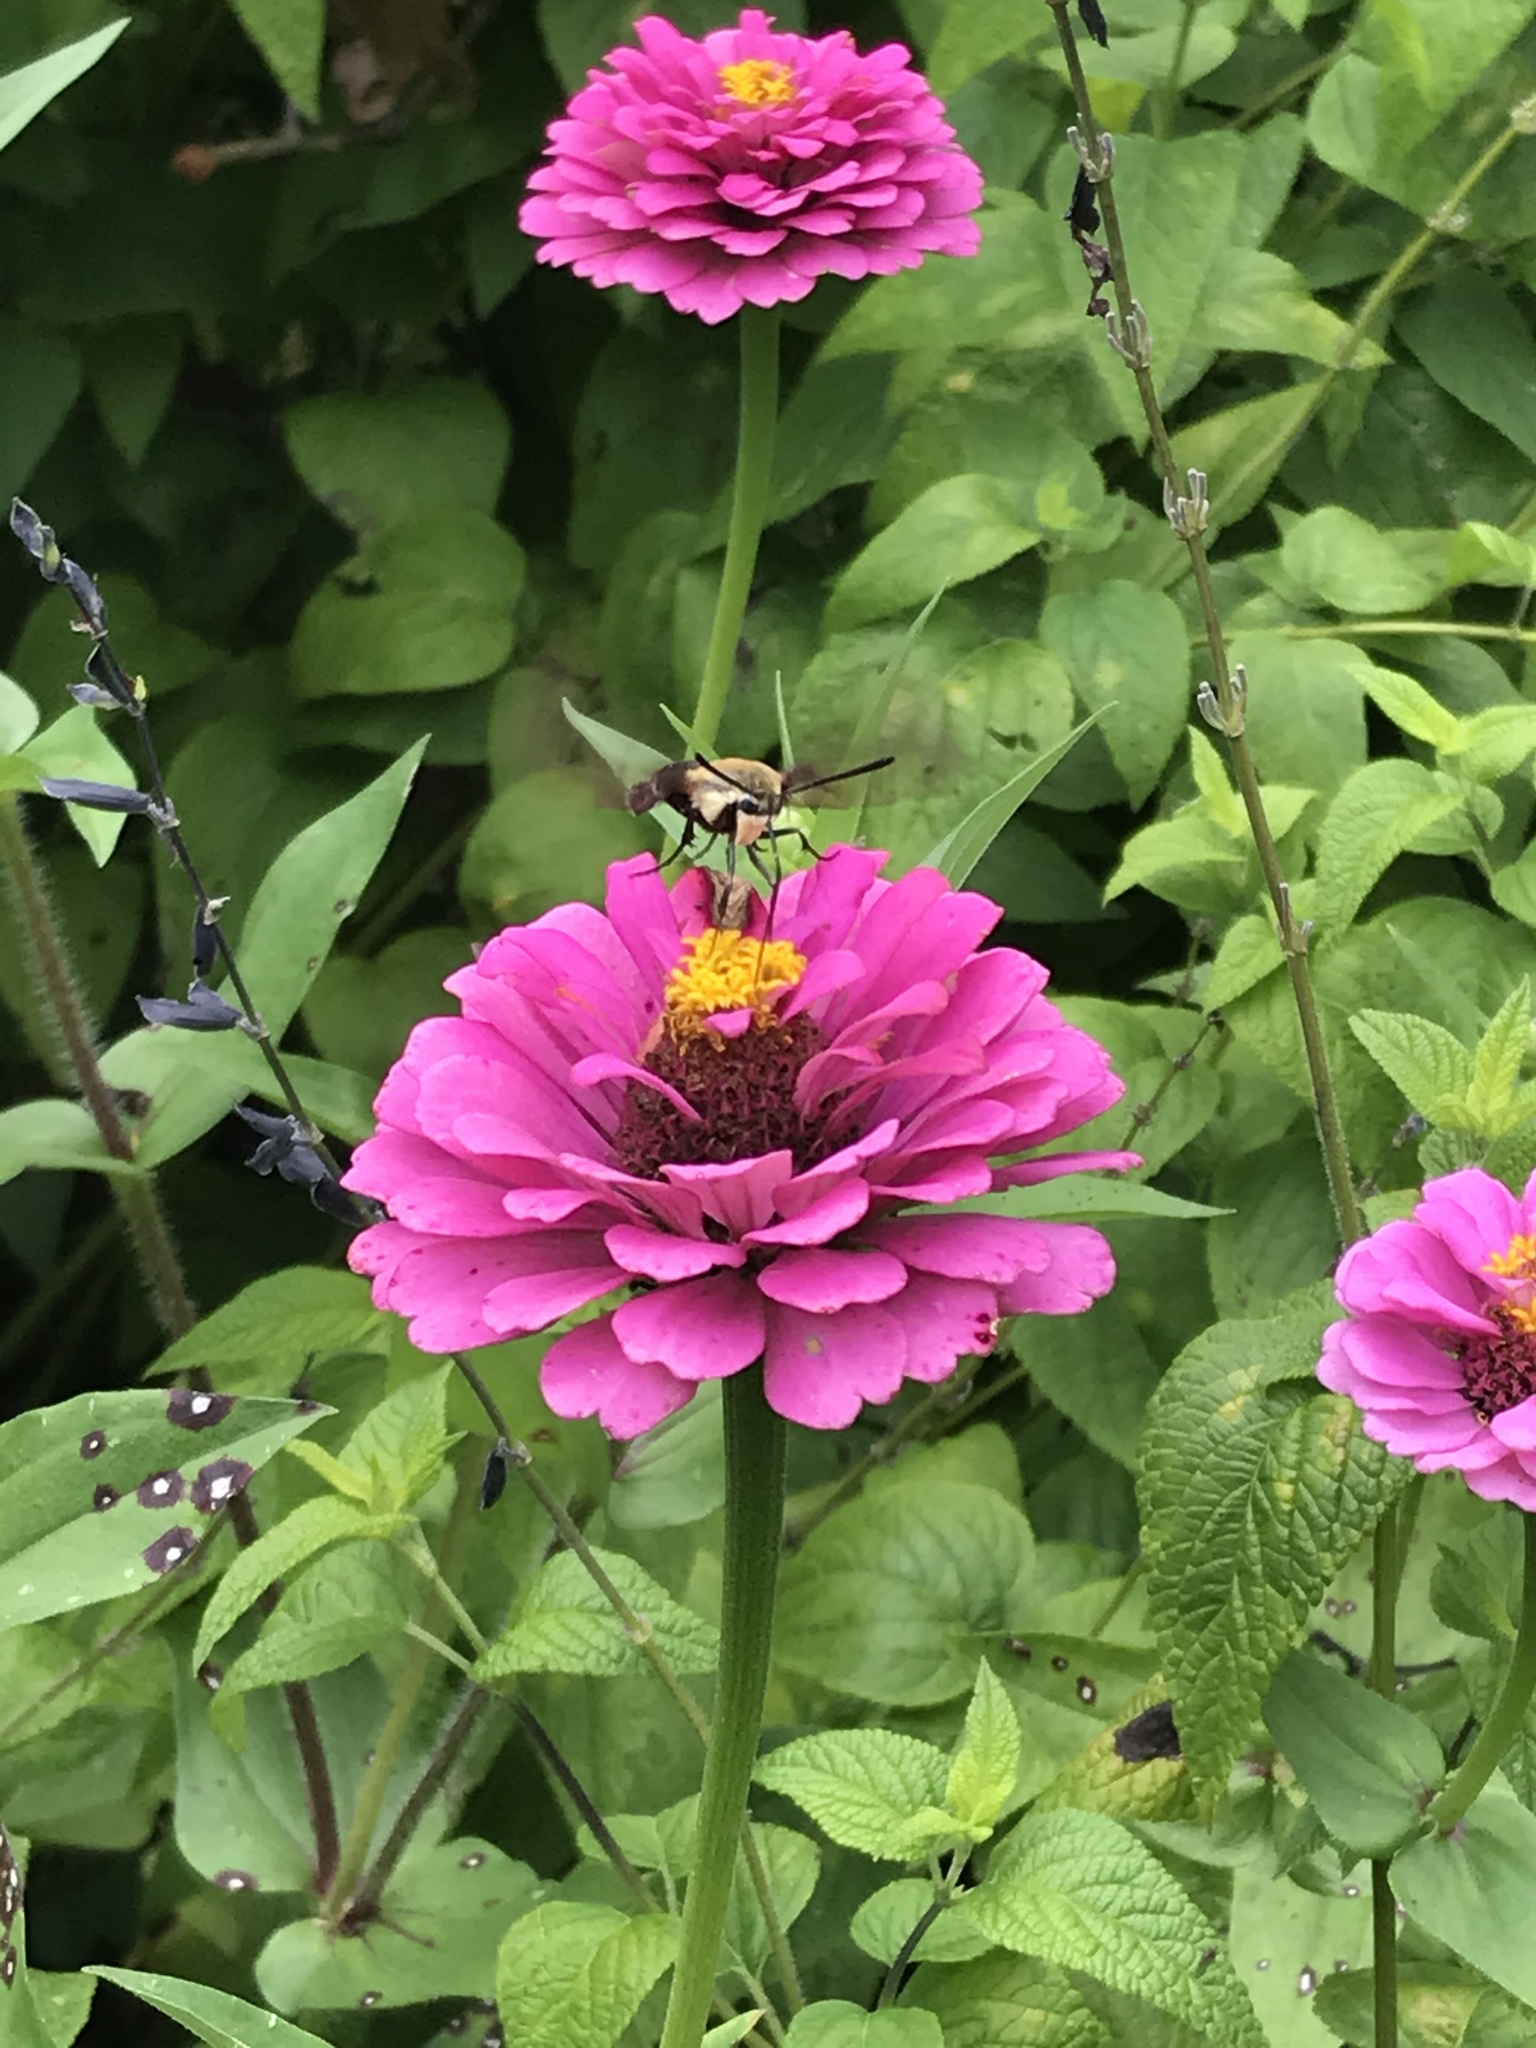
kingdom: Animalia
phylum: Arthropoda
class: Insecta
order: Lepidoptera
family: Sphingidae
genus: Hemaris
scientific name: Hemaris diffinis
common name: Bumblebee moth
